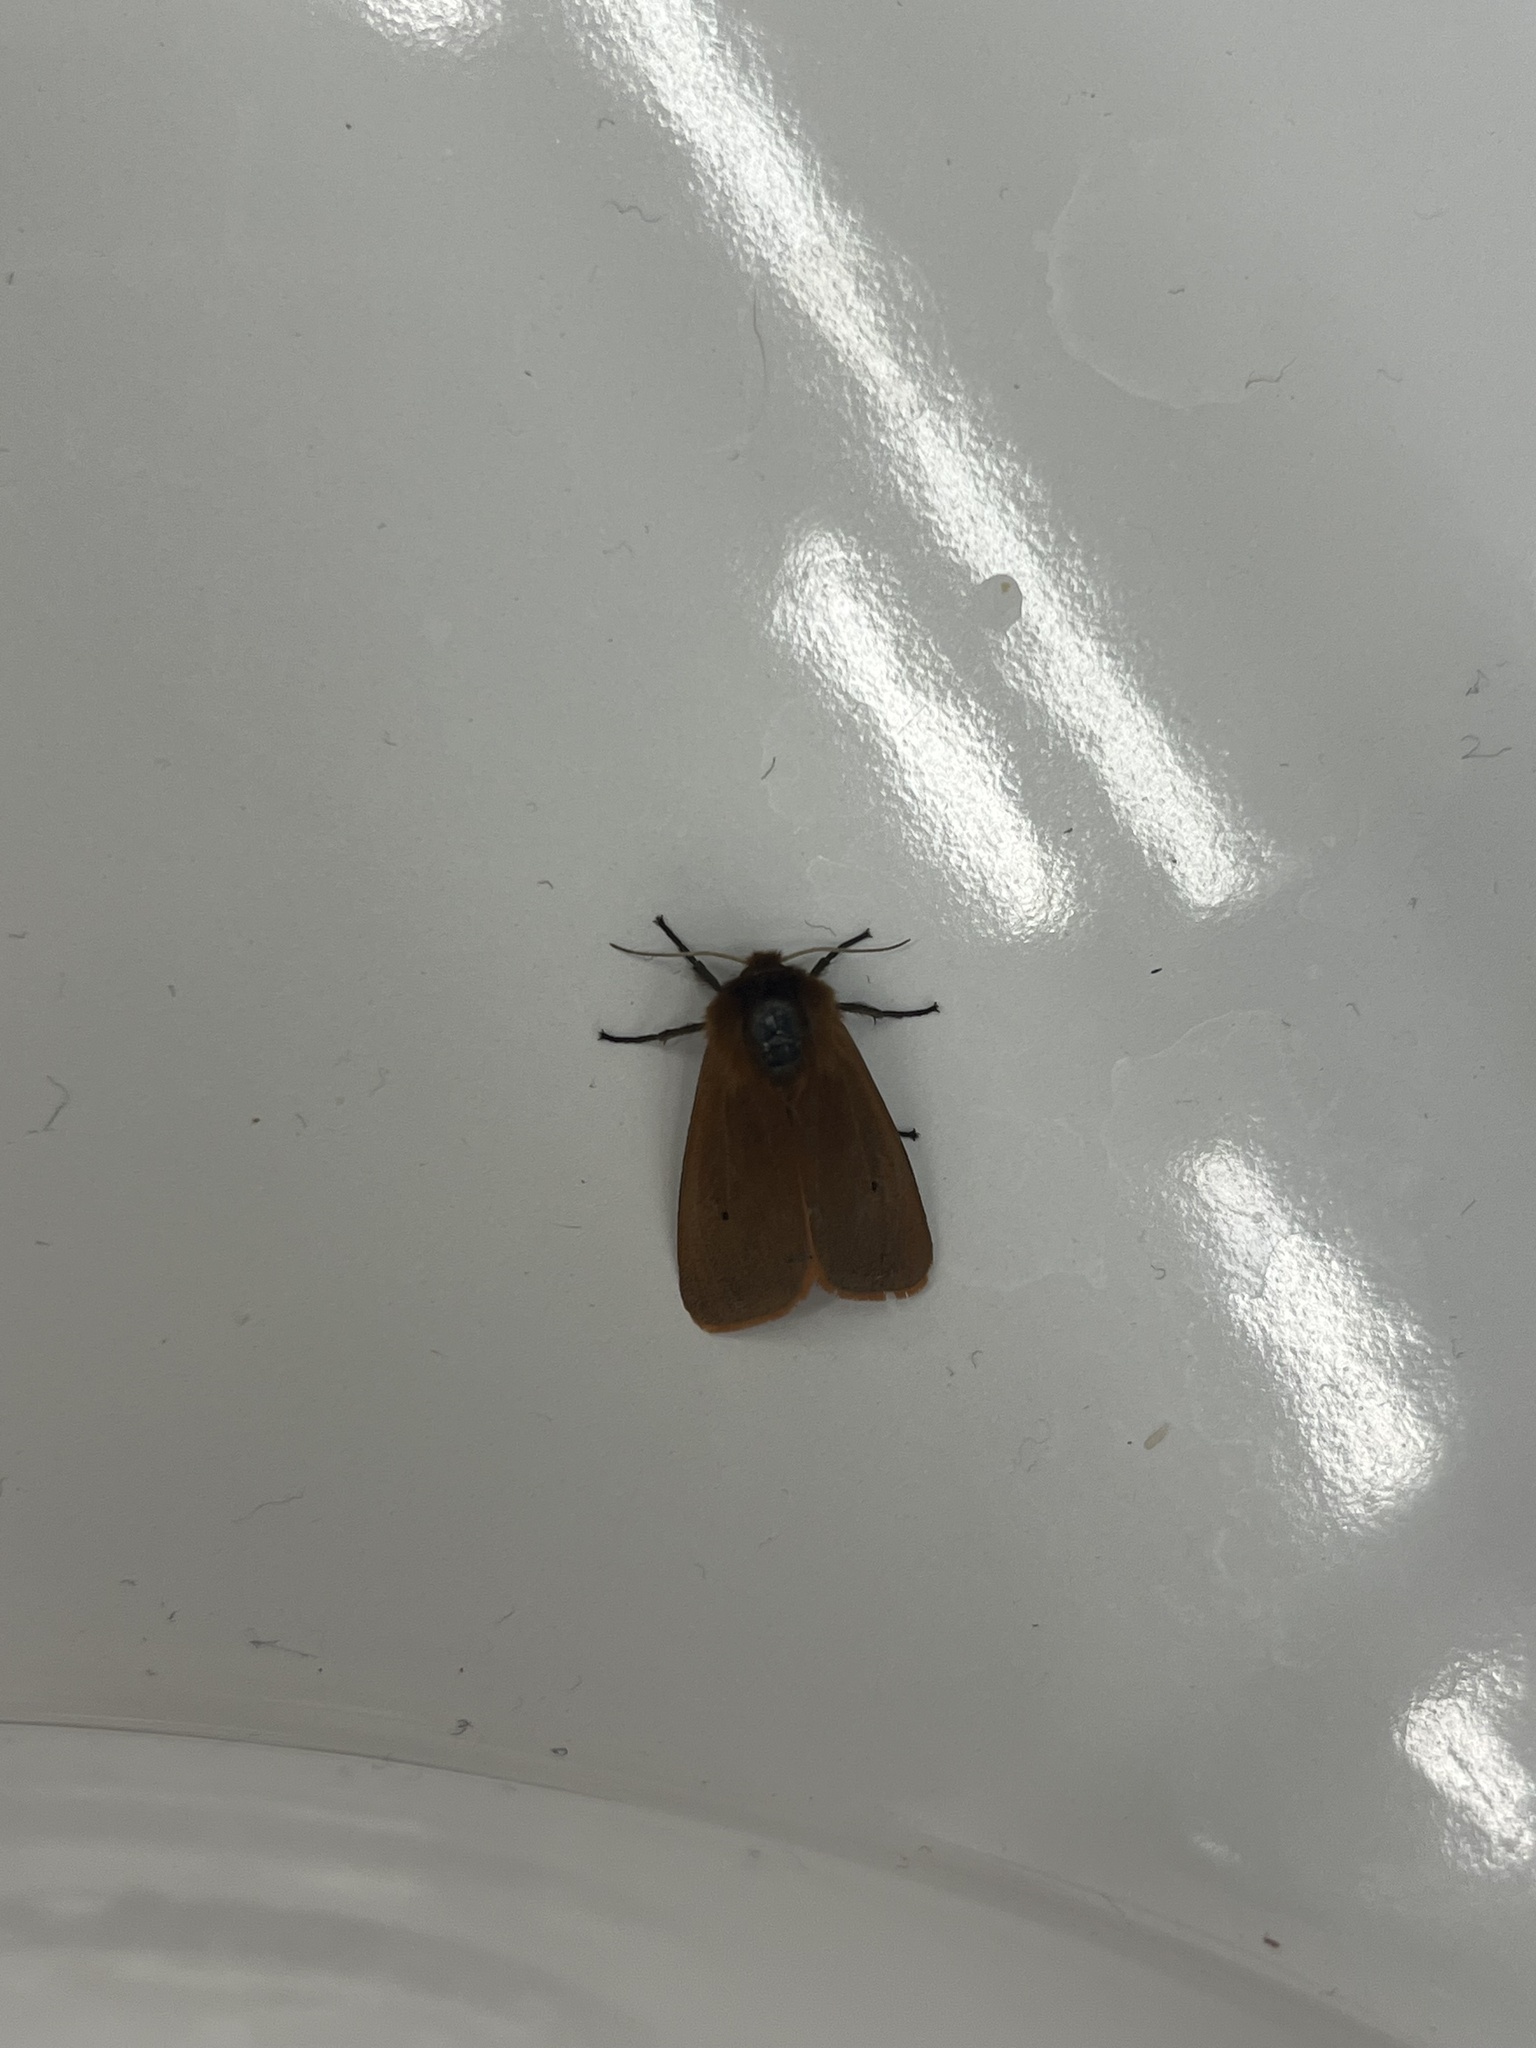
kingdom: Animalia
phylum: Arthropoda
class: Insecta
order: Lepidoptera
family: Erebidae
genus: Phragmatobia
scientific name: Phragmatobia fuliginosa
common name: Ruby tiger
